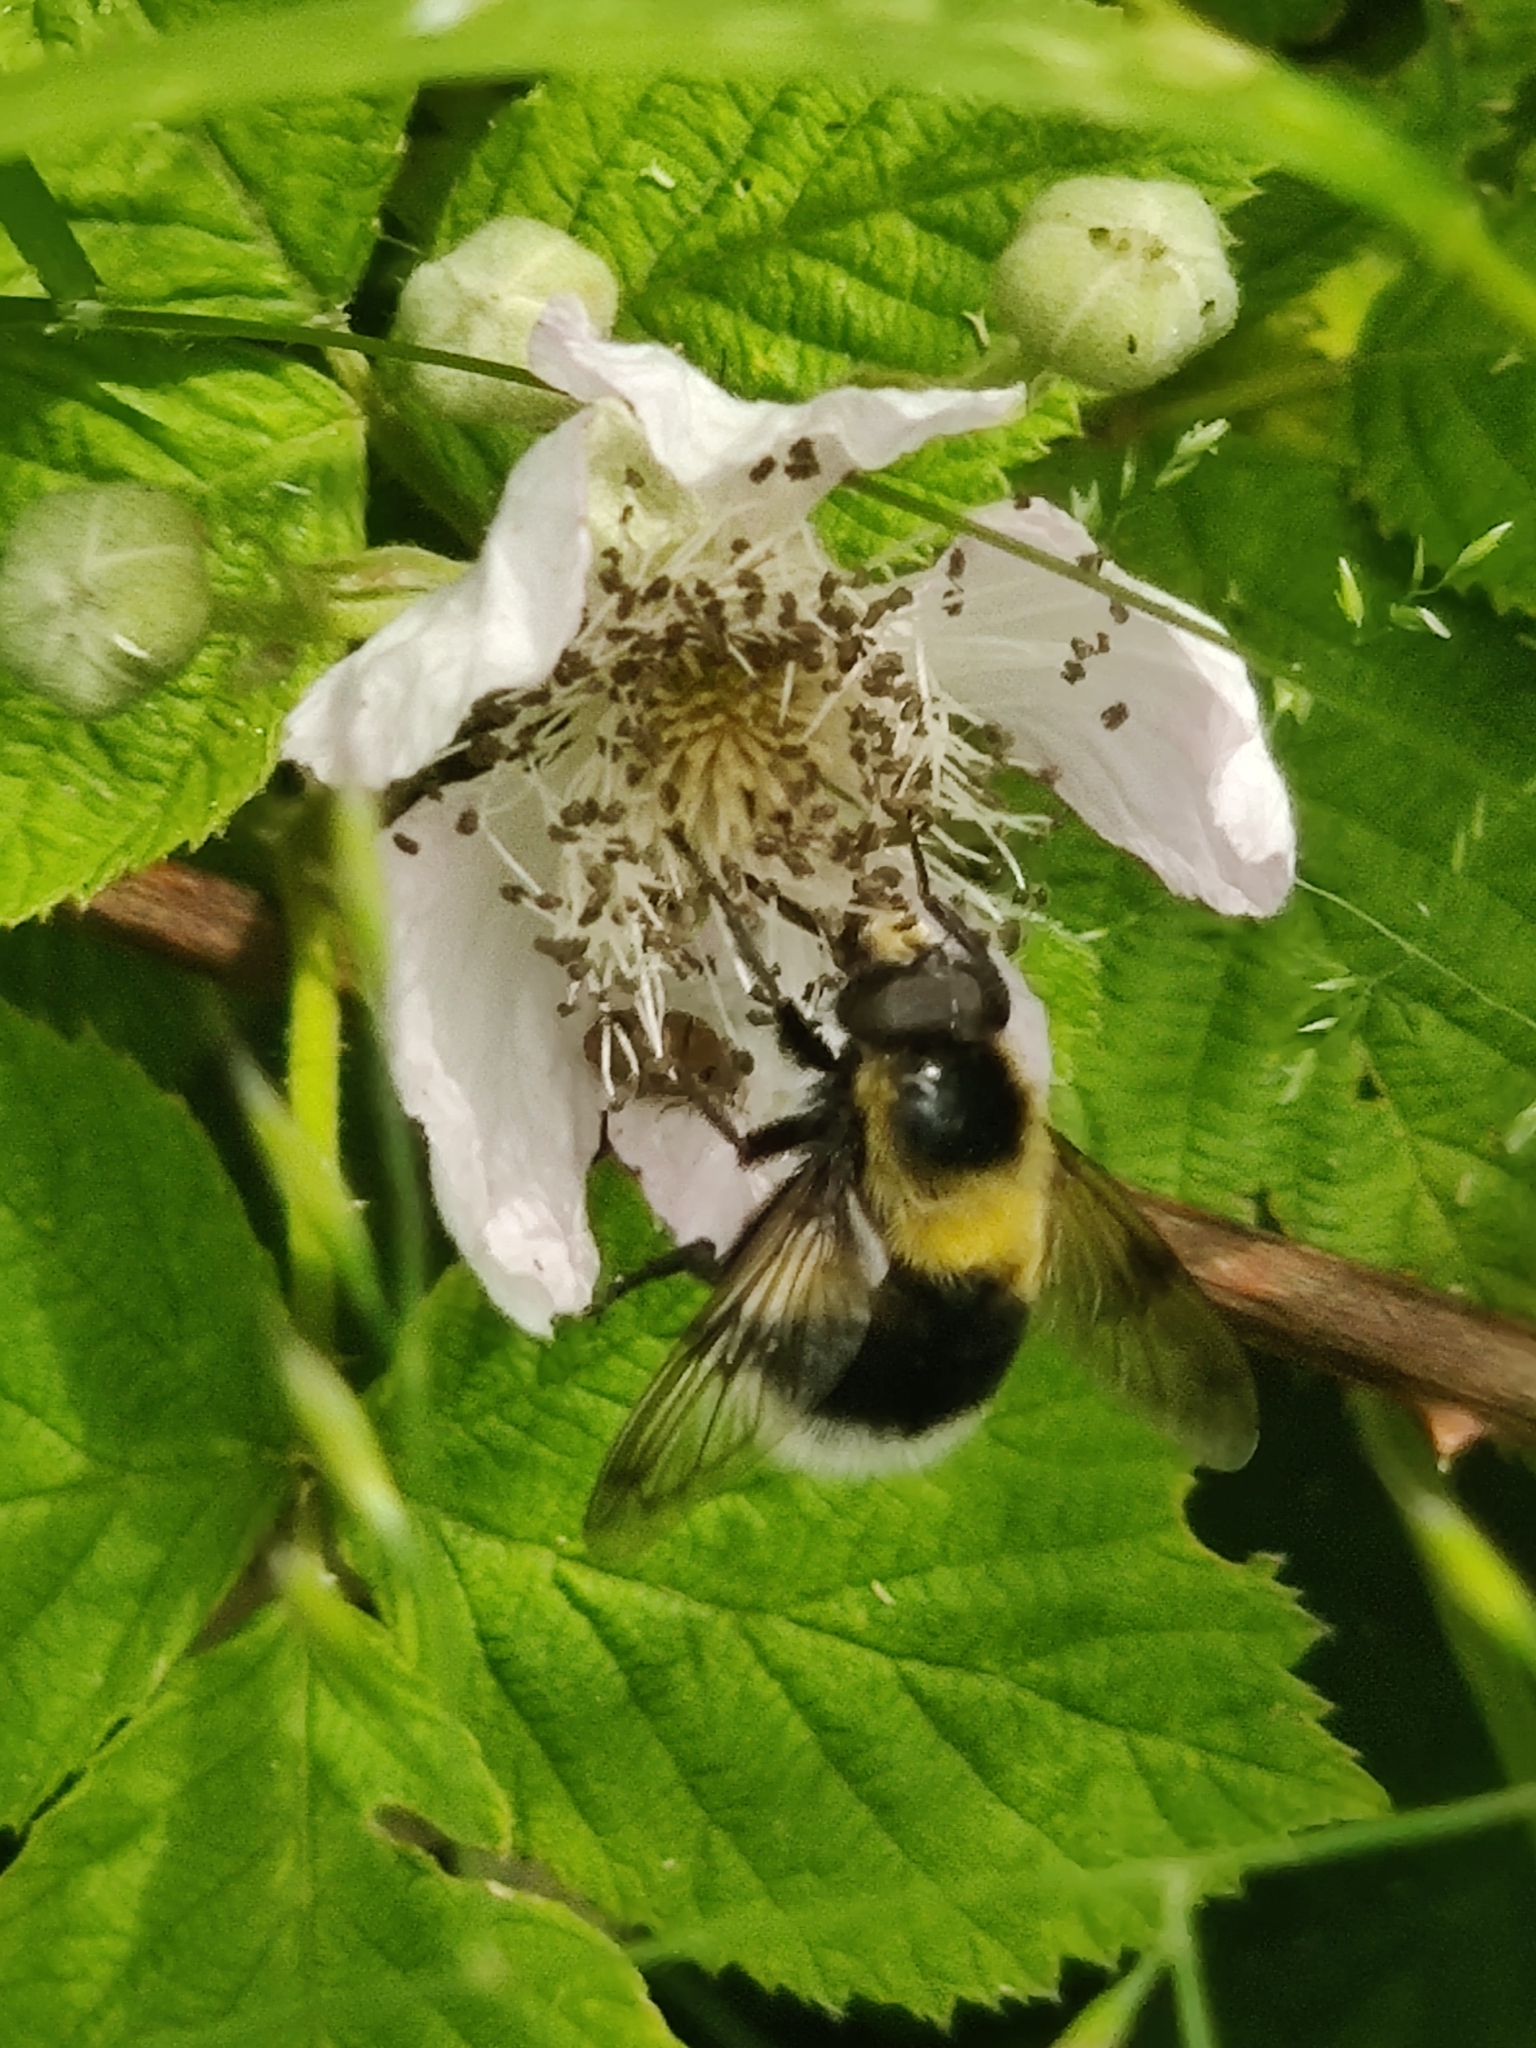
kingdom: Animalia
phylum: Arthropoda
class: Insecta
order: Diptera
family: Syrphidae
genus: Volucella
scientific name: Volucella bombylans
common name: Bumble bee hover fly
